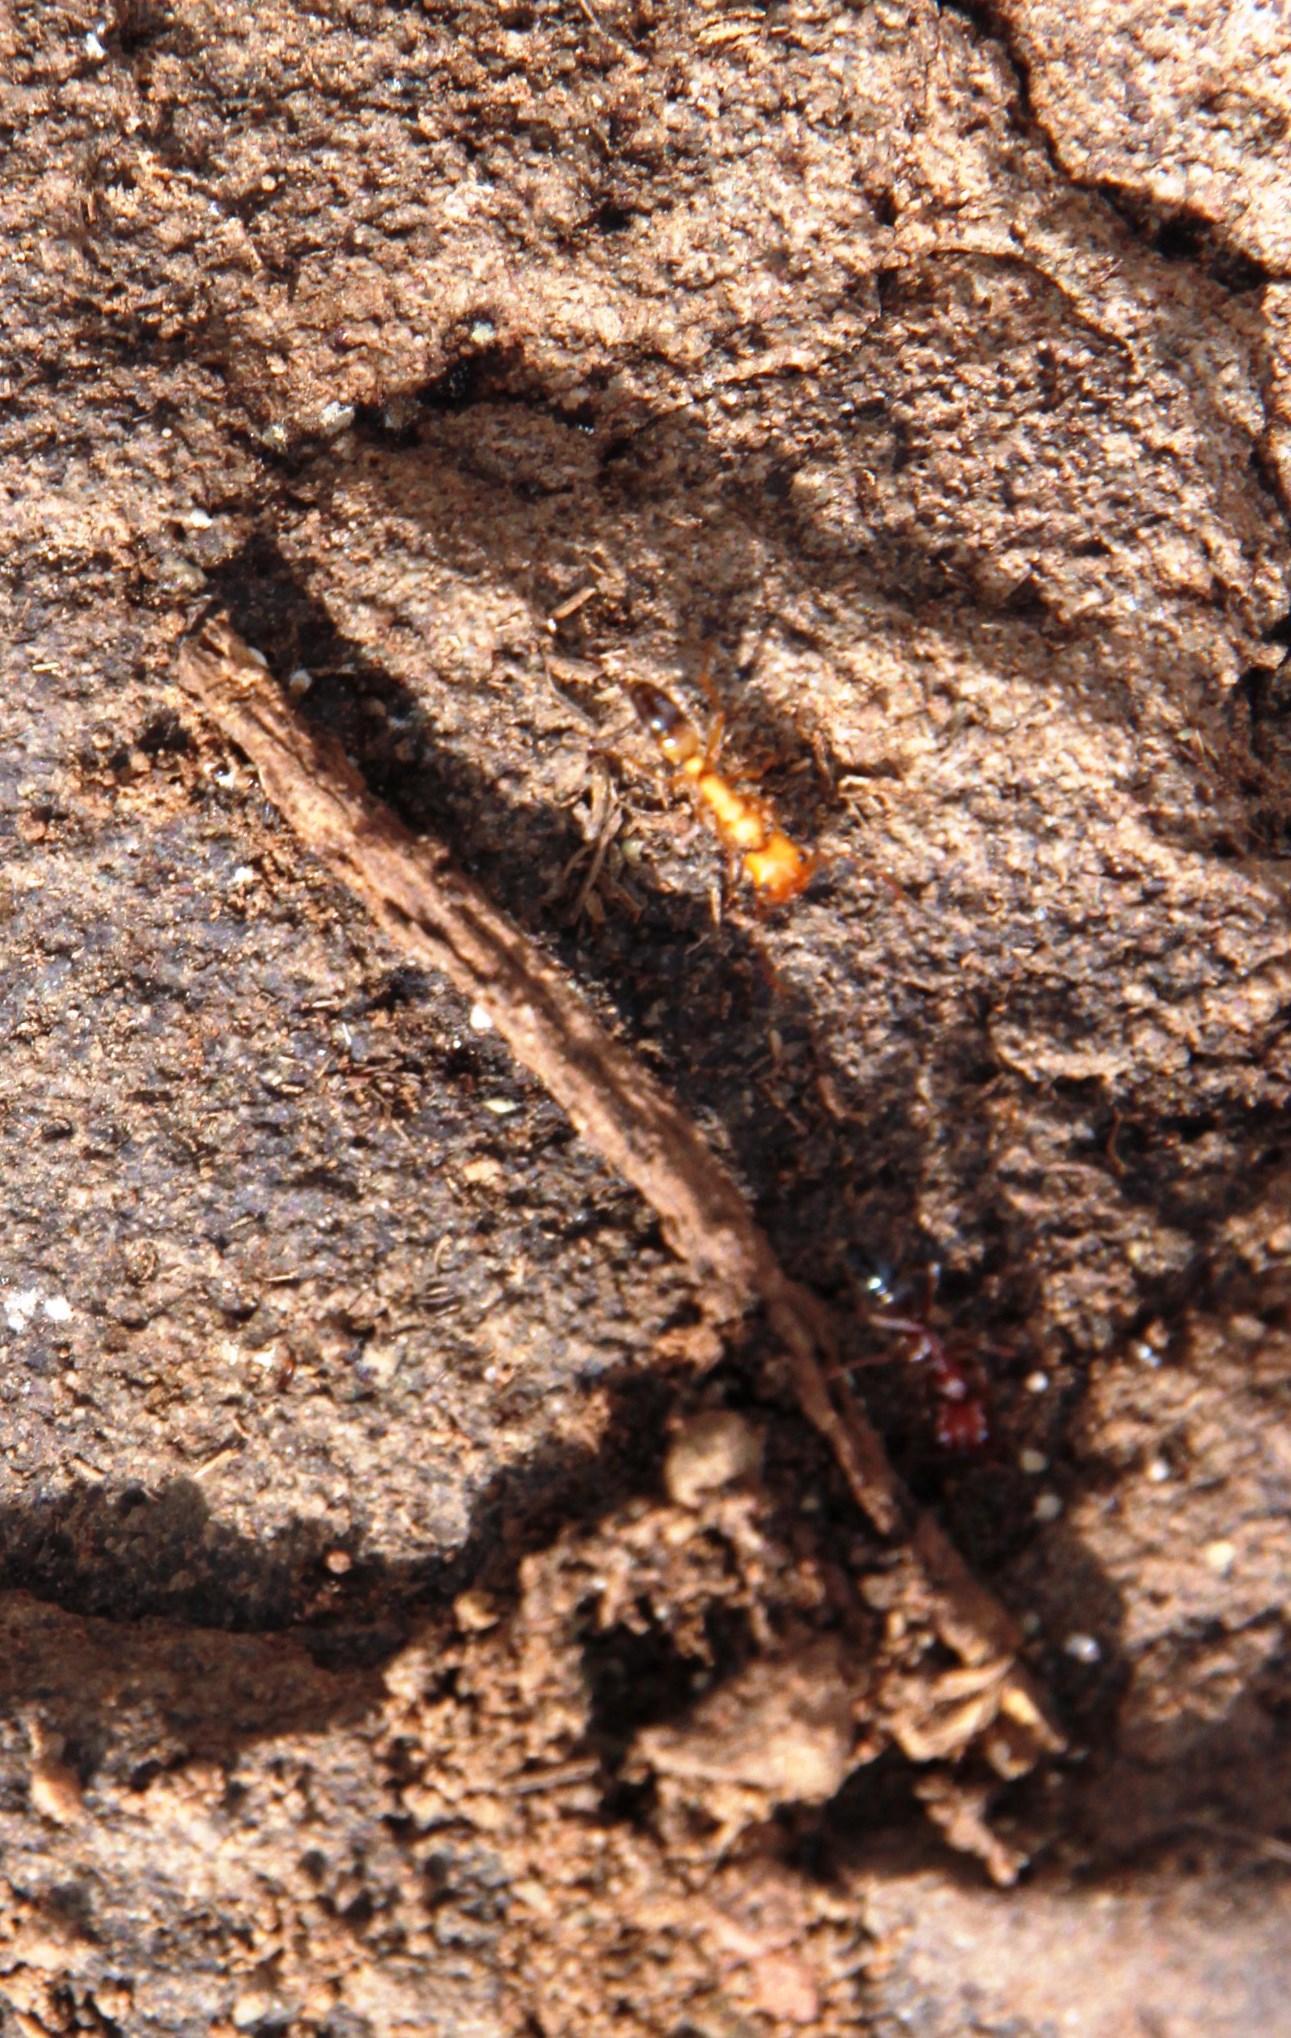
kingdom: Animalia
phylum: Arthropoda
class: Insecta
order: Hymenoptera
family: Formicidae
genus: Anochetus
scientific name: Anochetus levaillanti
